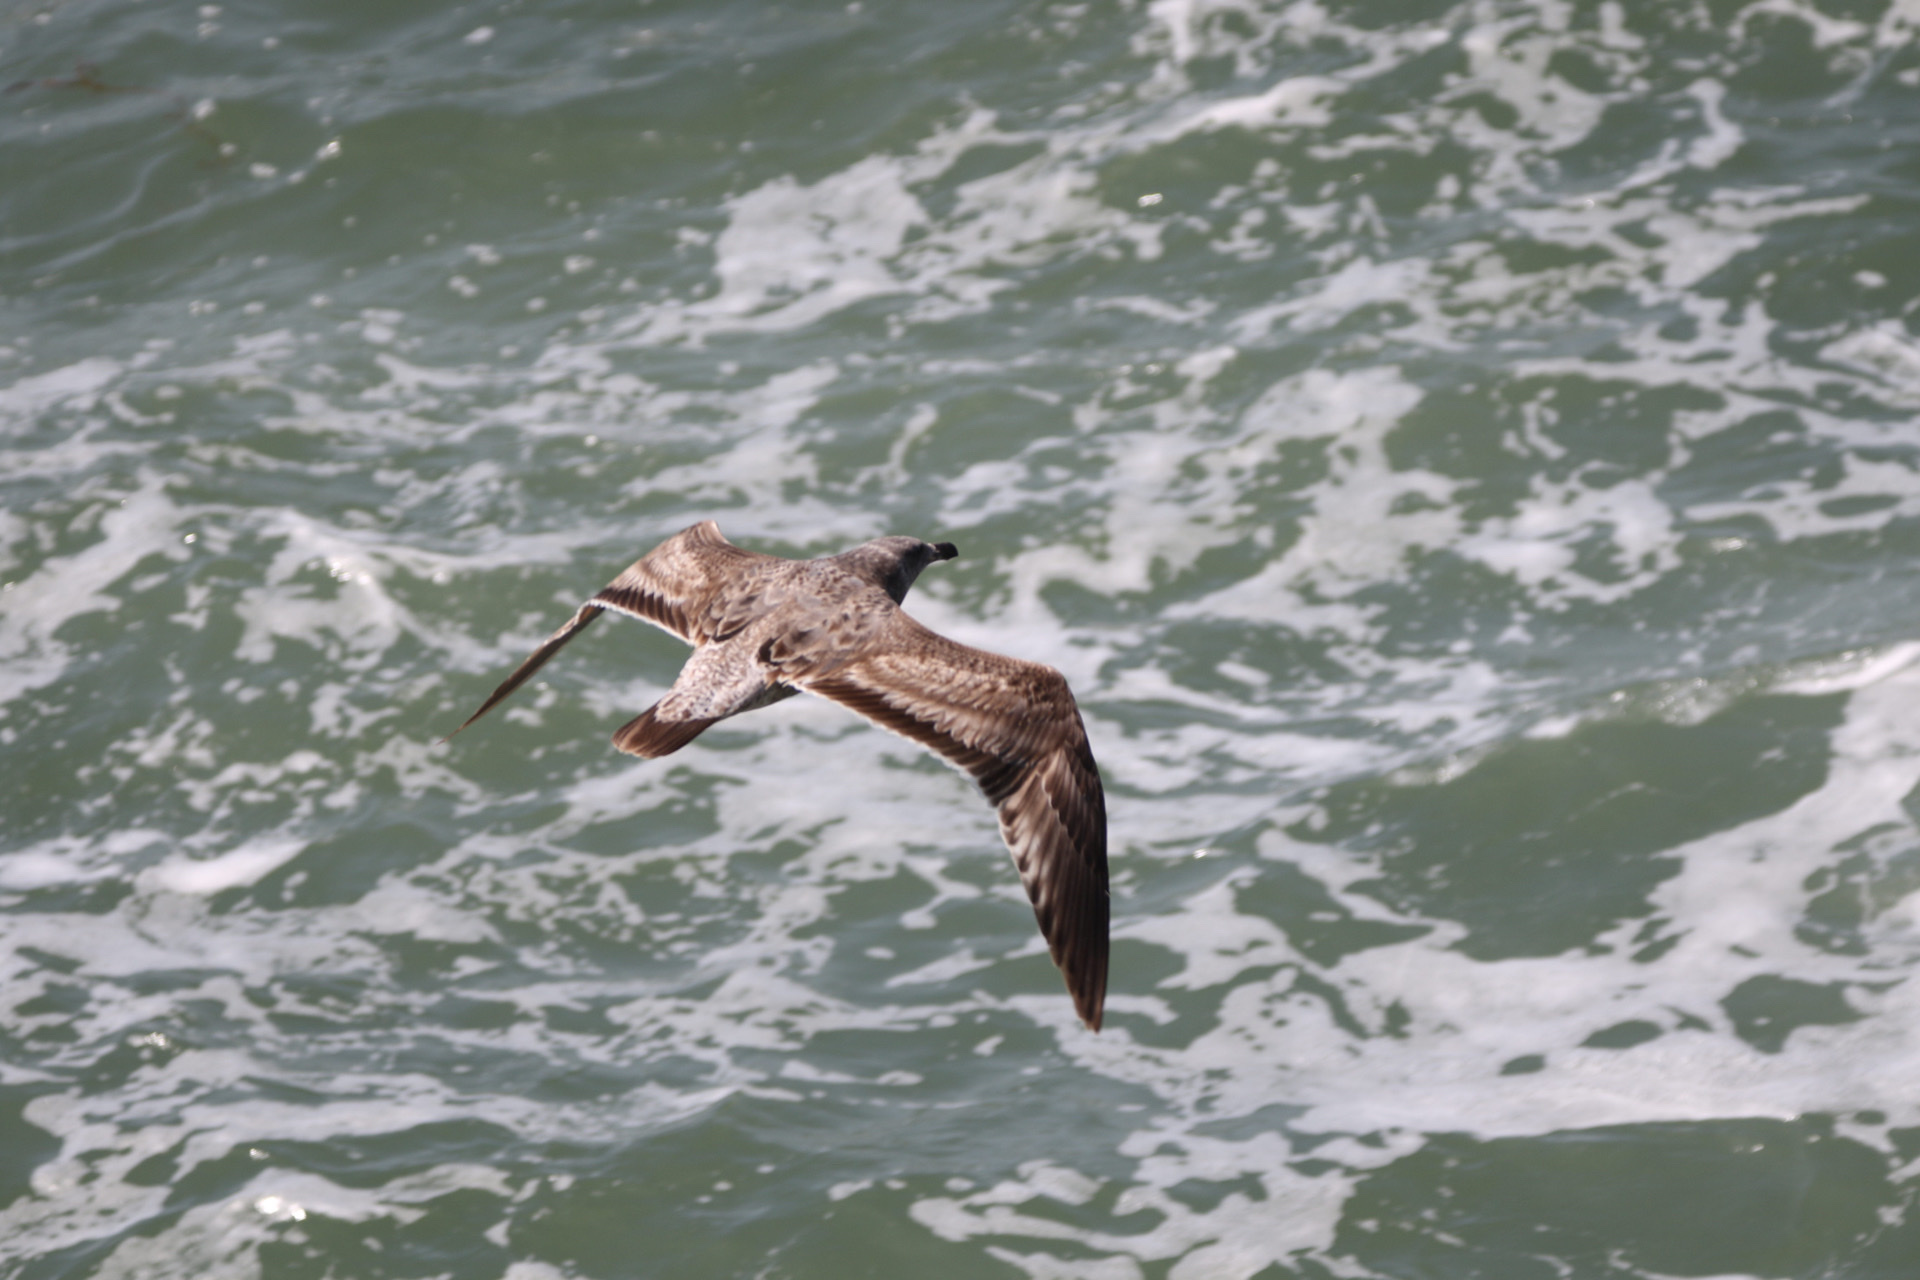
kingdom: Animalia
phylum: Chordata
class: Aves
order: Charadriiformes
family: Laridae
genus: Larus
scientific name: Larus occidentalis
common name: Western gull
